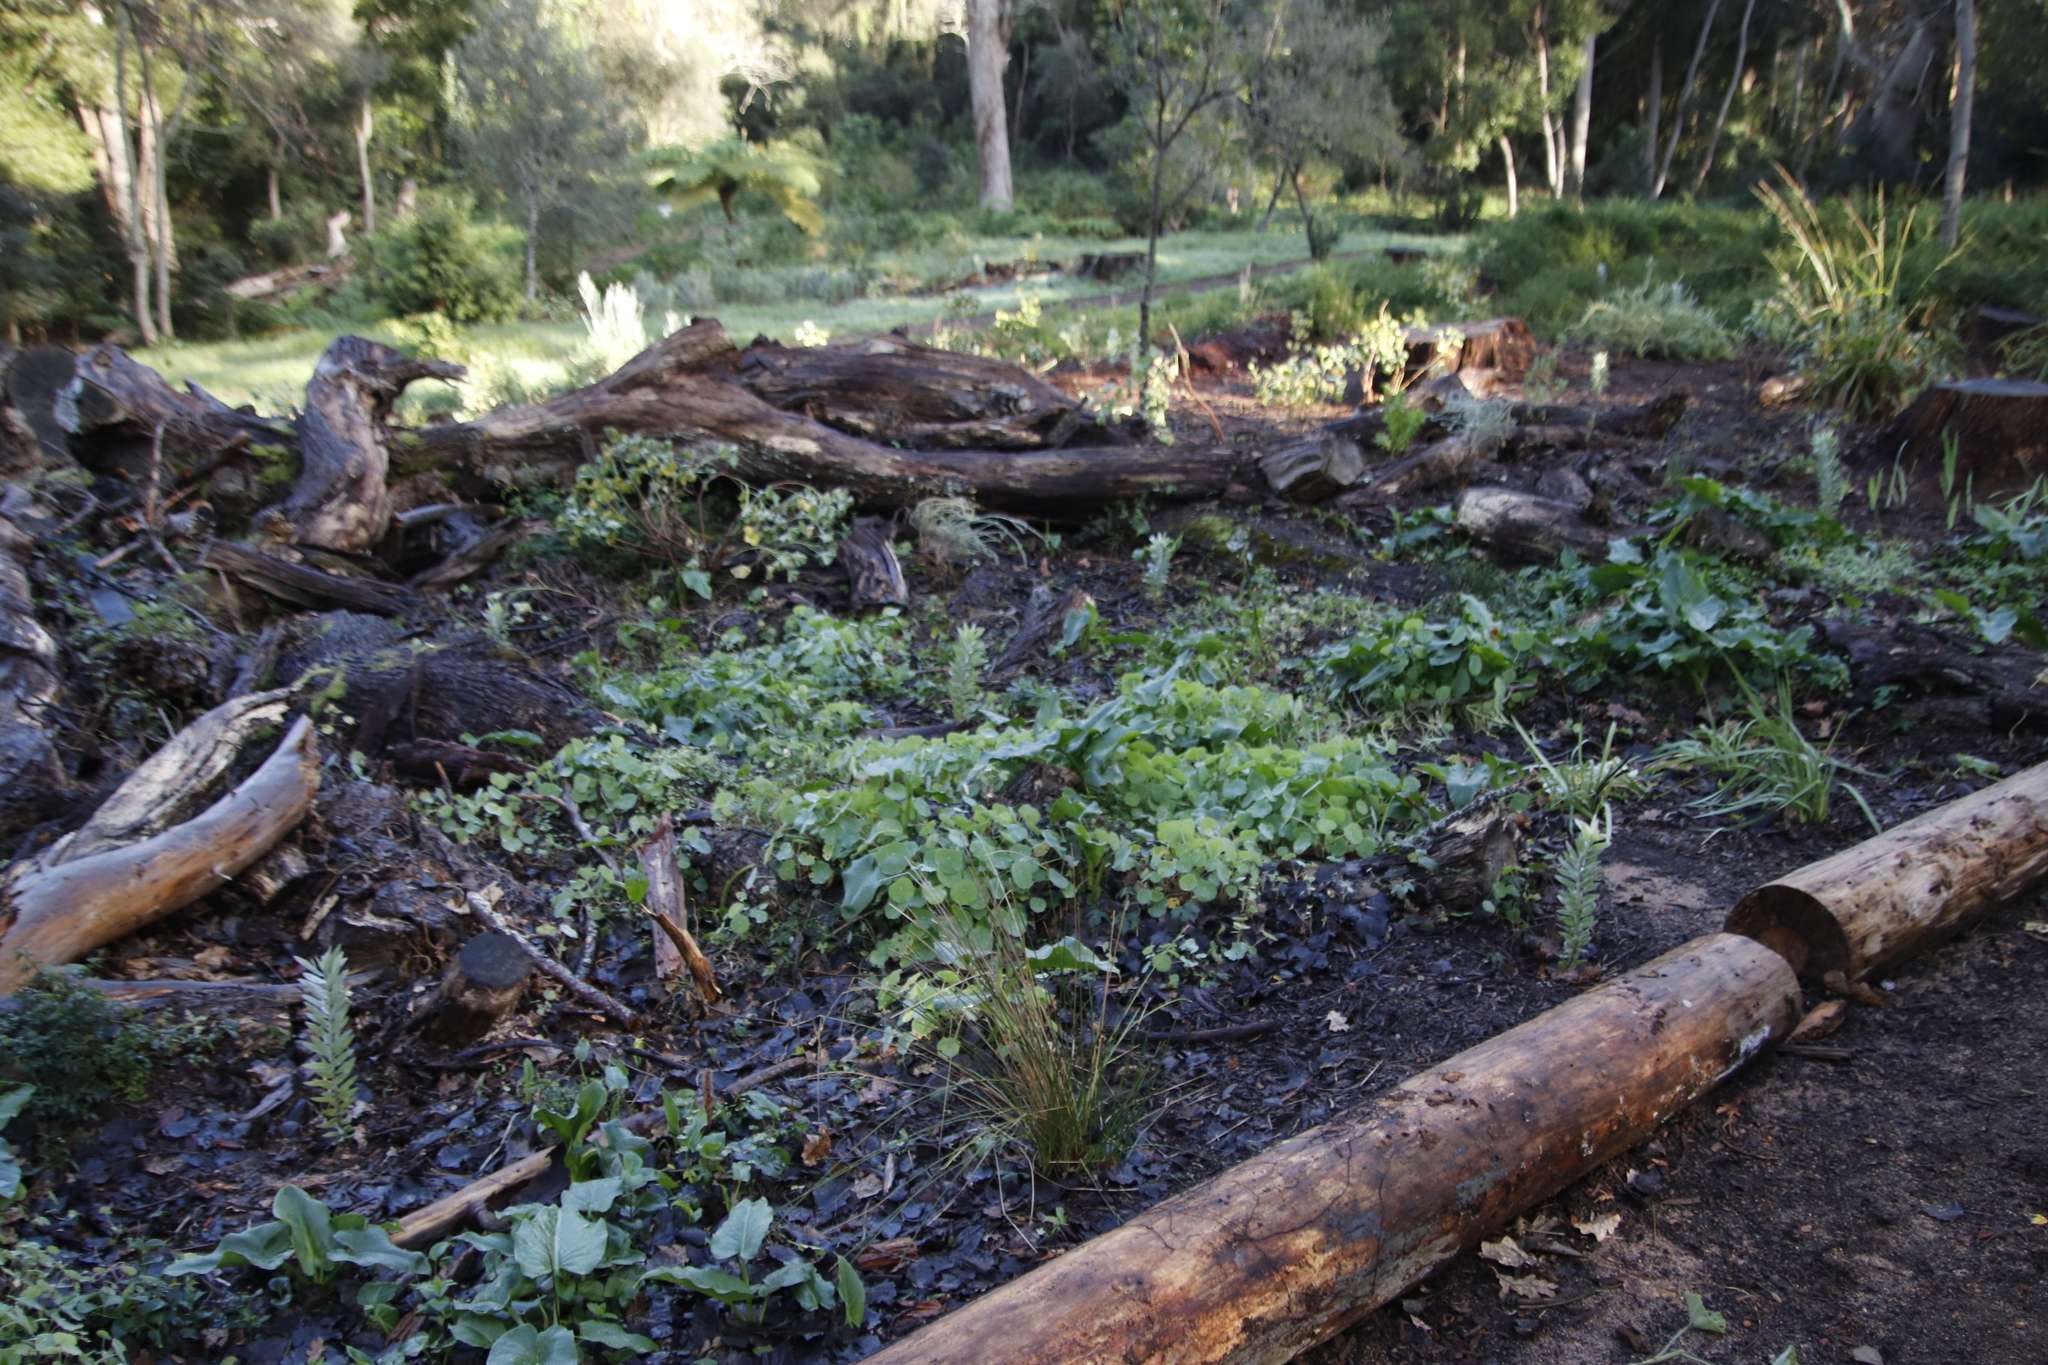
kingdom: Plantae
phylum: Tracheophyta
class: Magnoliopsida
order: Brassicales
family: Tropaeolaceae
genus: Tropaeolum
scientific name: Tropaeolum majus
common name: Nasturtium
